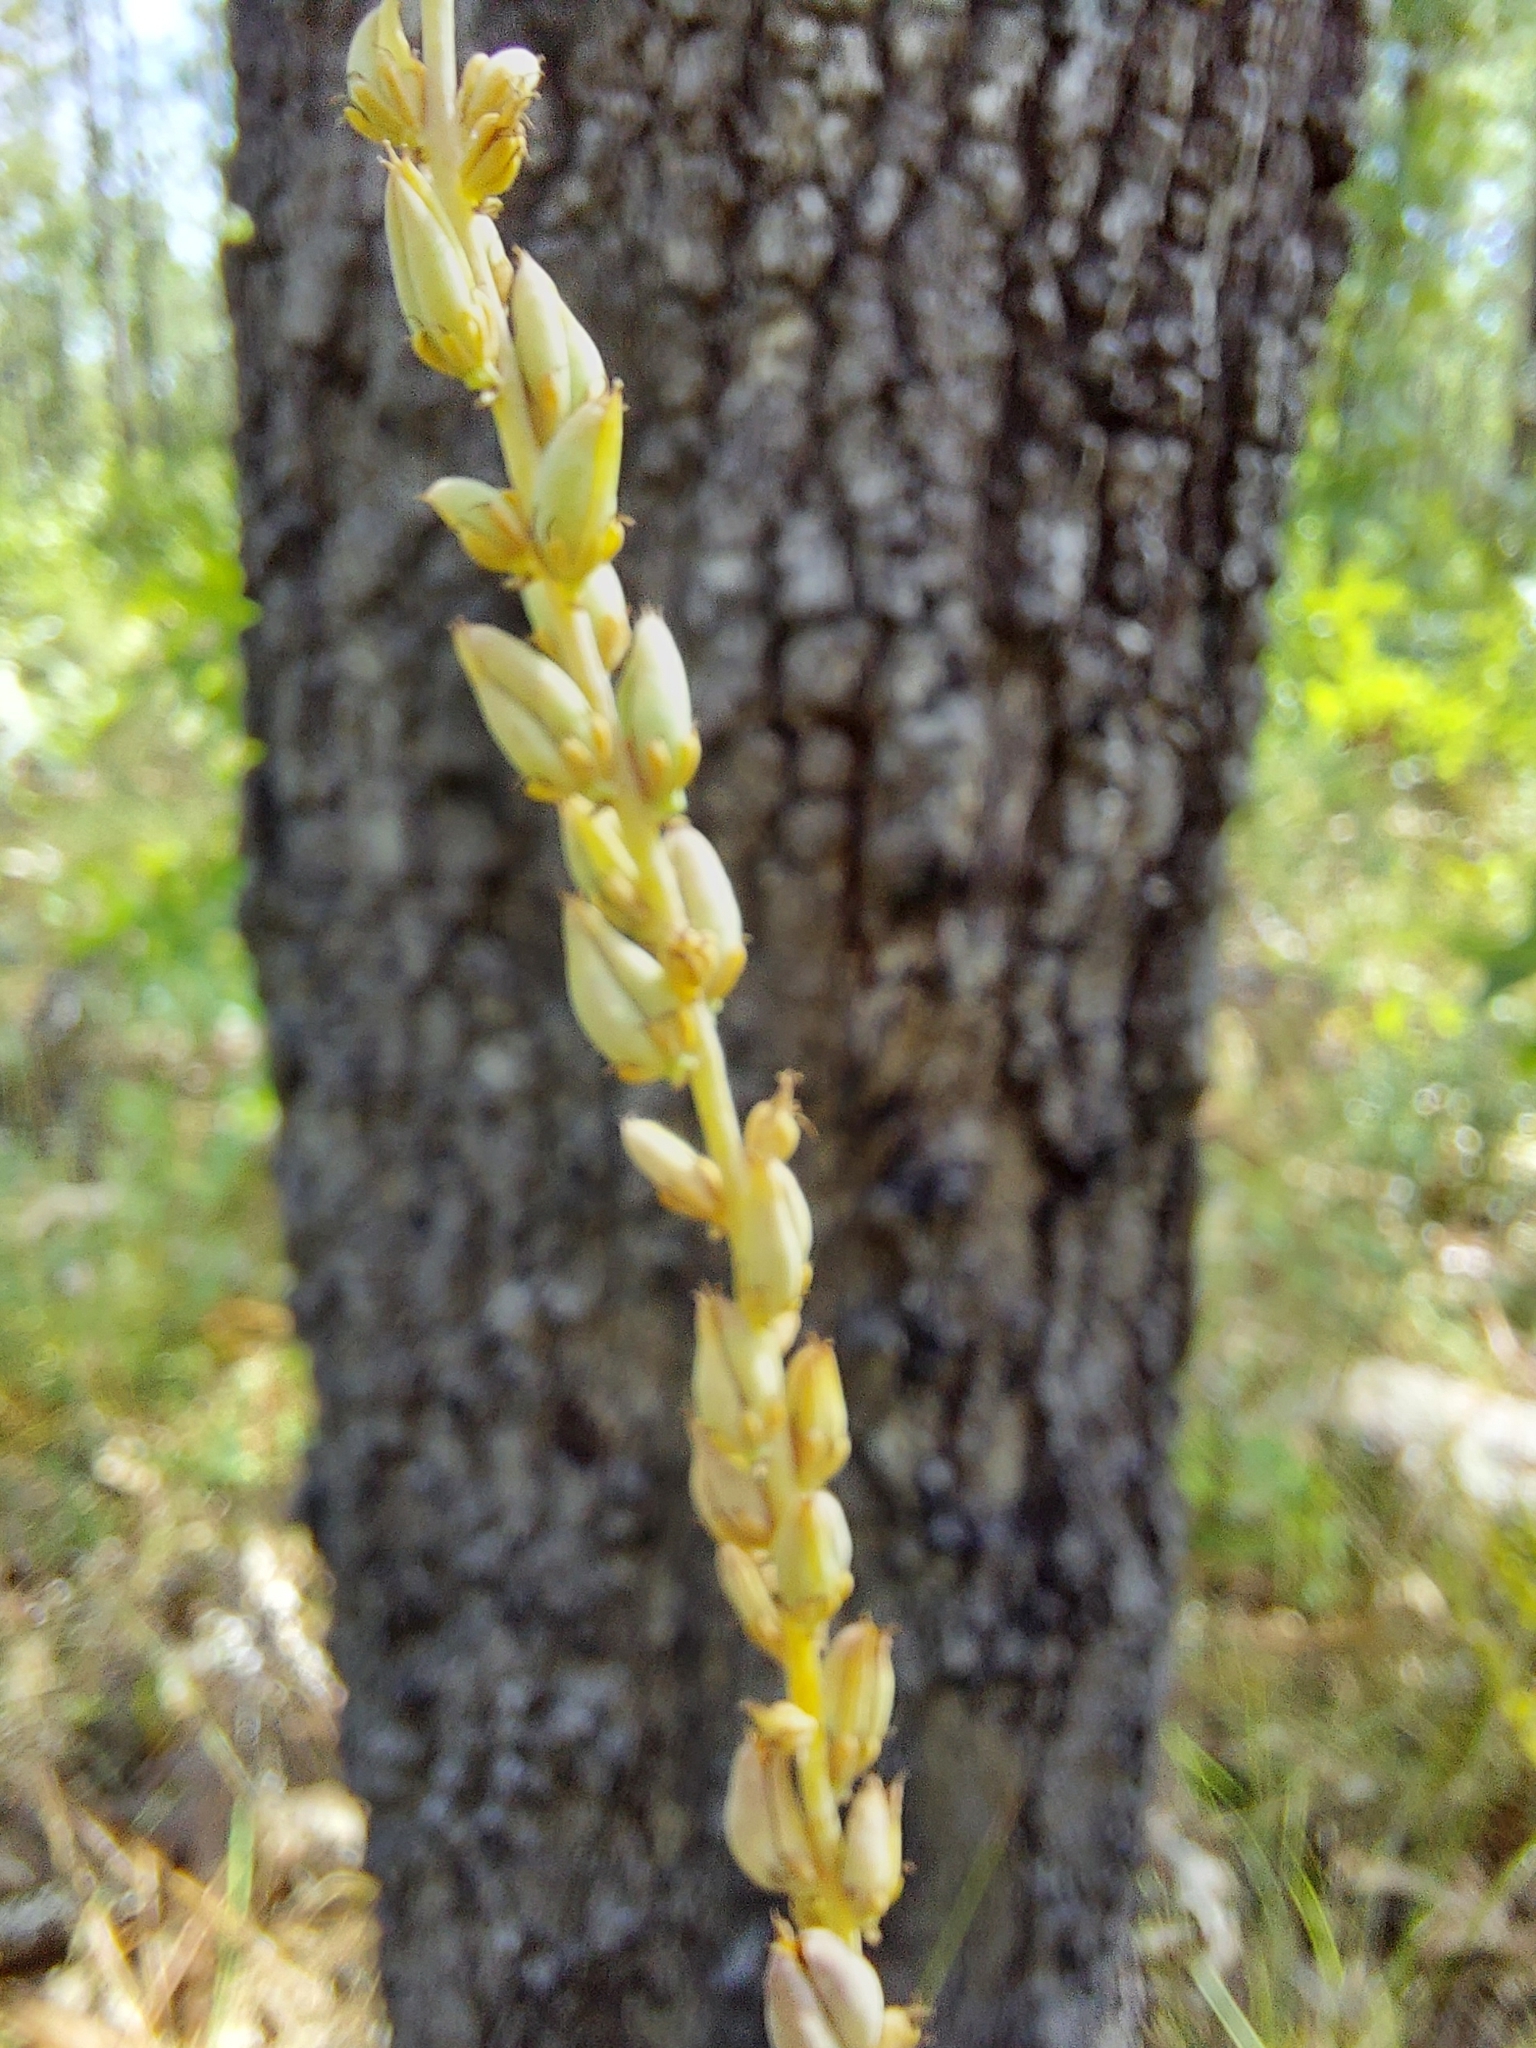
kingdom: Plantae
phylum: Tracheophyta
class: Liliopsida
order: Liliales
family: Melanthiaceae
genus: Schoenocaulon
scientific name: Schoenocaulon dubium
